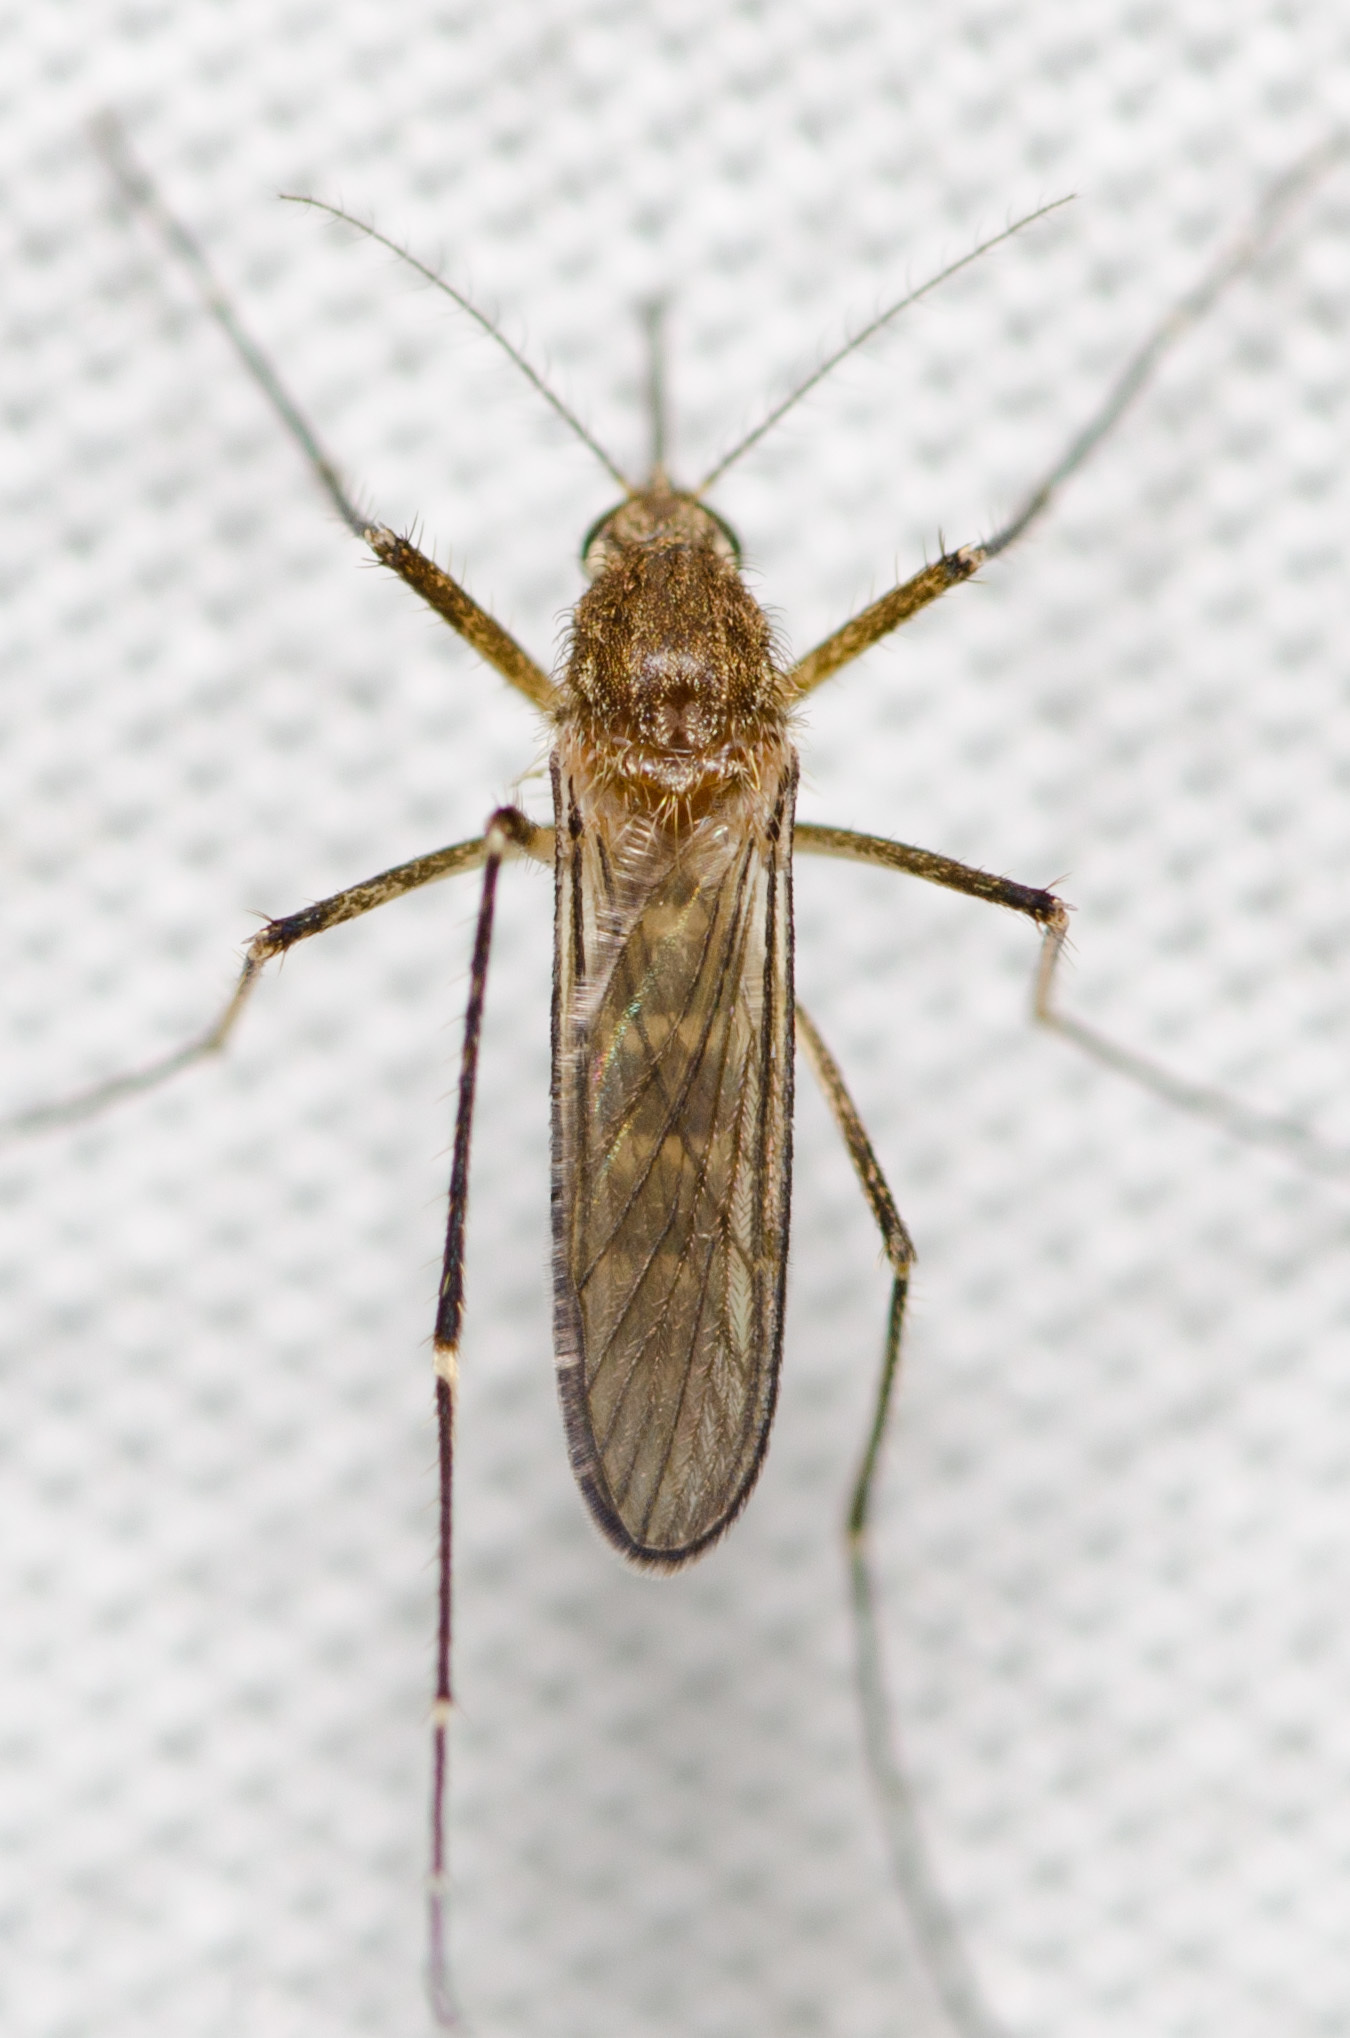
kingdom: Animalia
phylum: Arthropoda
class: Insecta
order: Diptera
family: Culicidae
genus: Aedes
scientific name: Aedes vexans
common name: Inland floodwater mosquito
